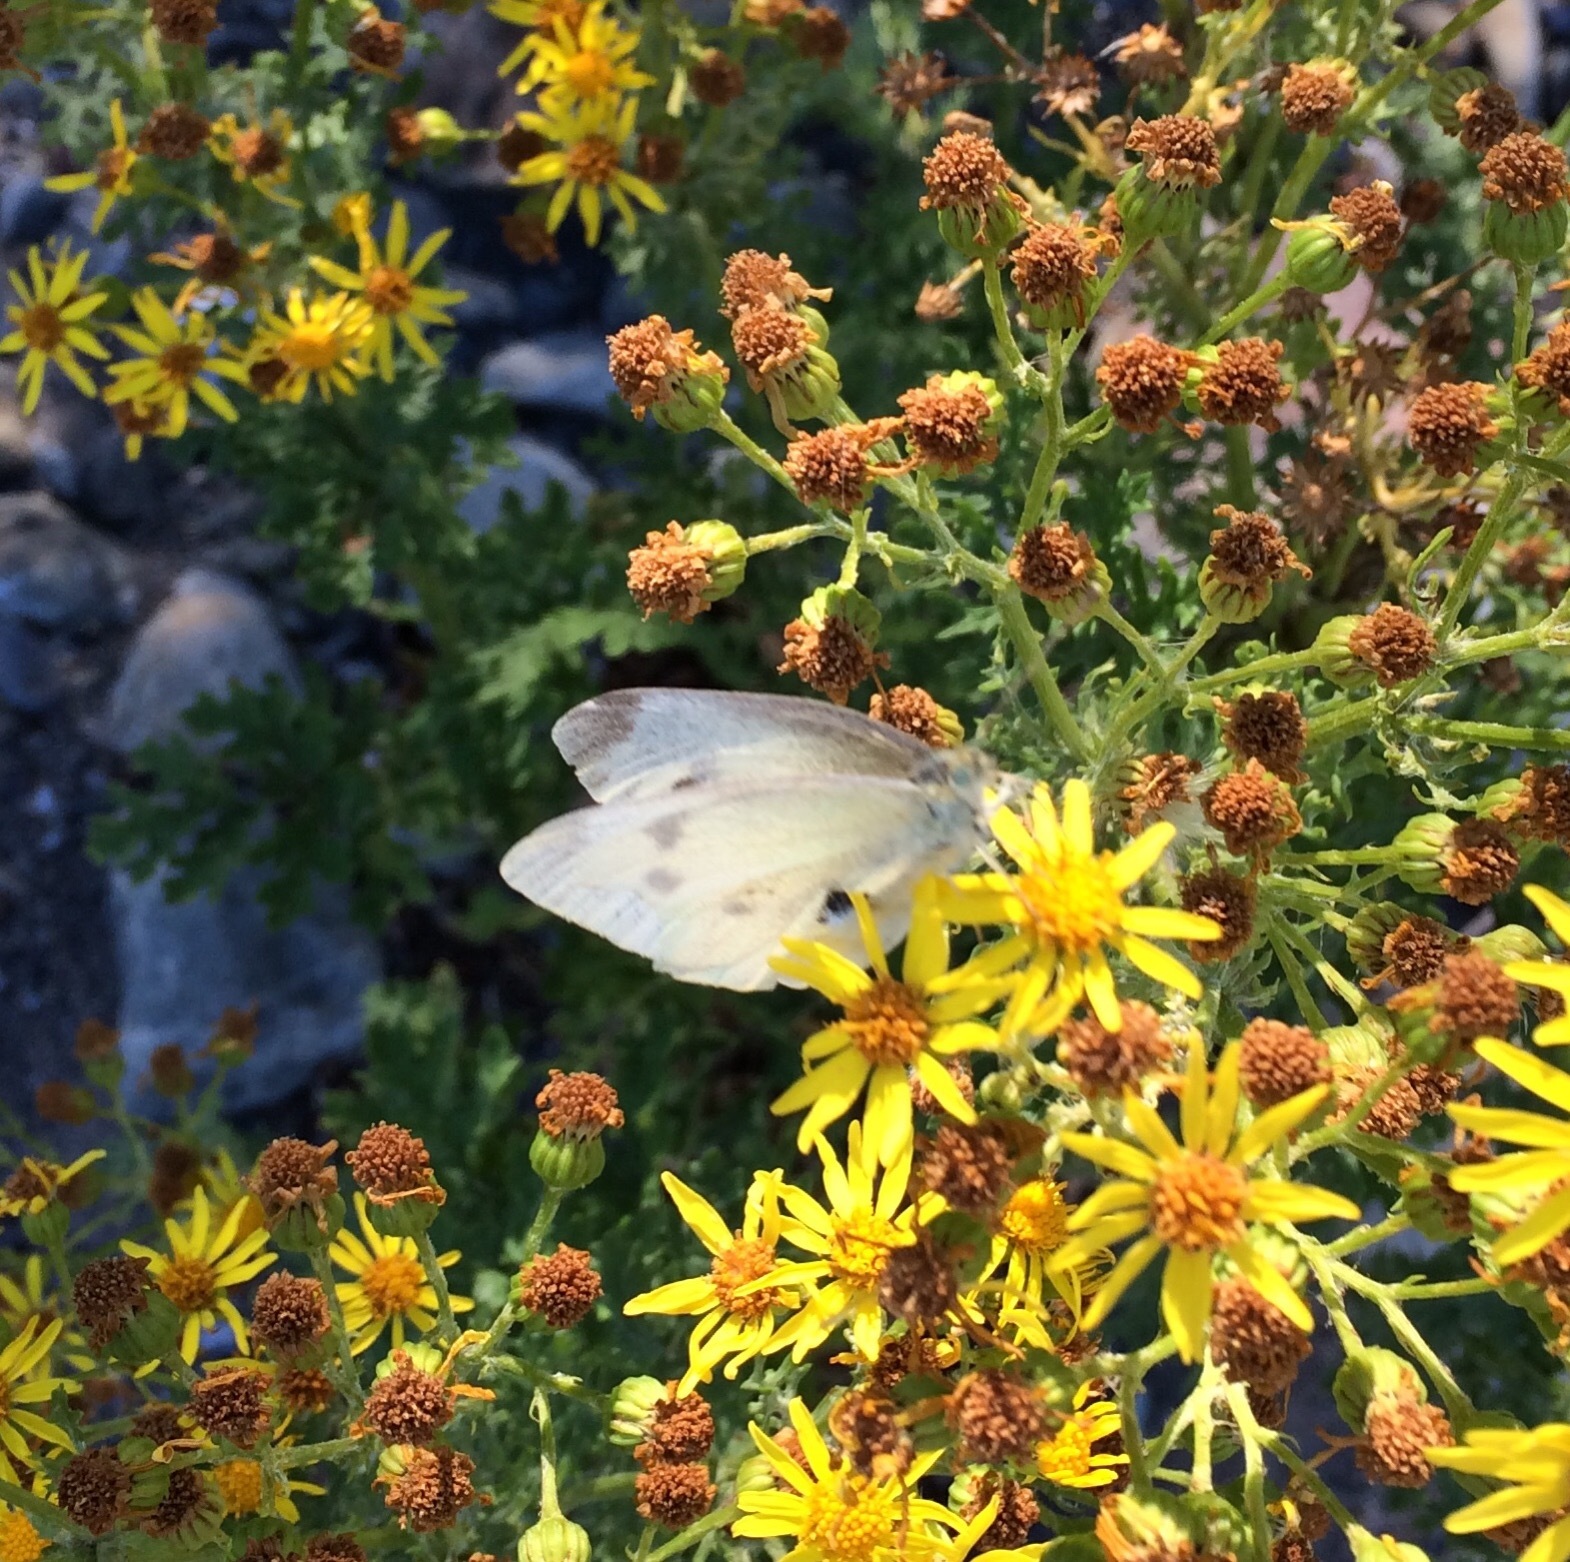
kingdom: Animalia
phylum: Arthropoda
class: Insecta
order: Lepidoptera
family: Pieridae
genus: Pieris
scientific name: Pieris rapae
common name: Small white
